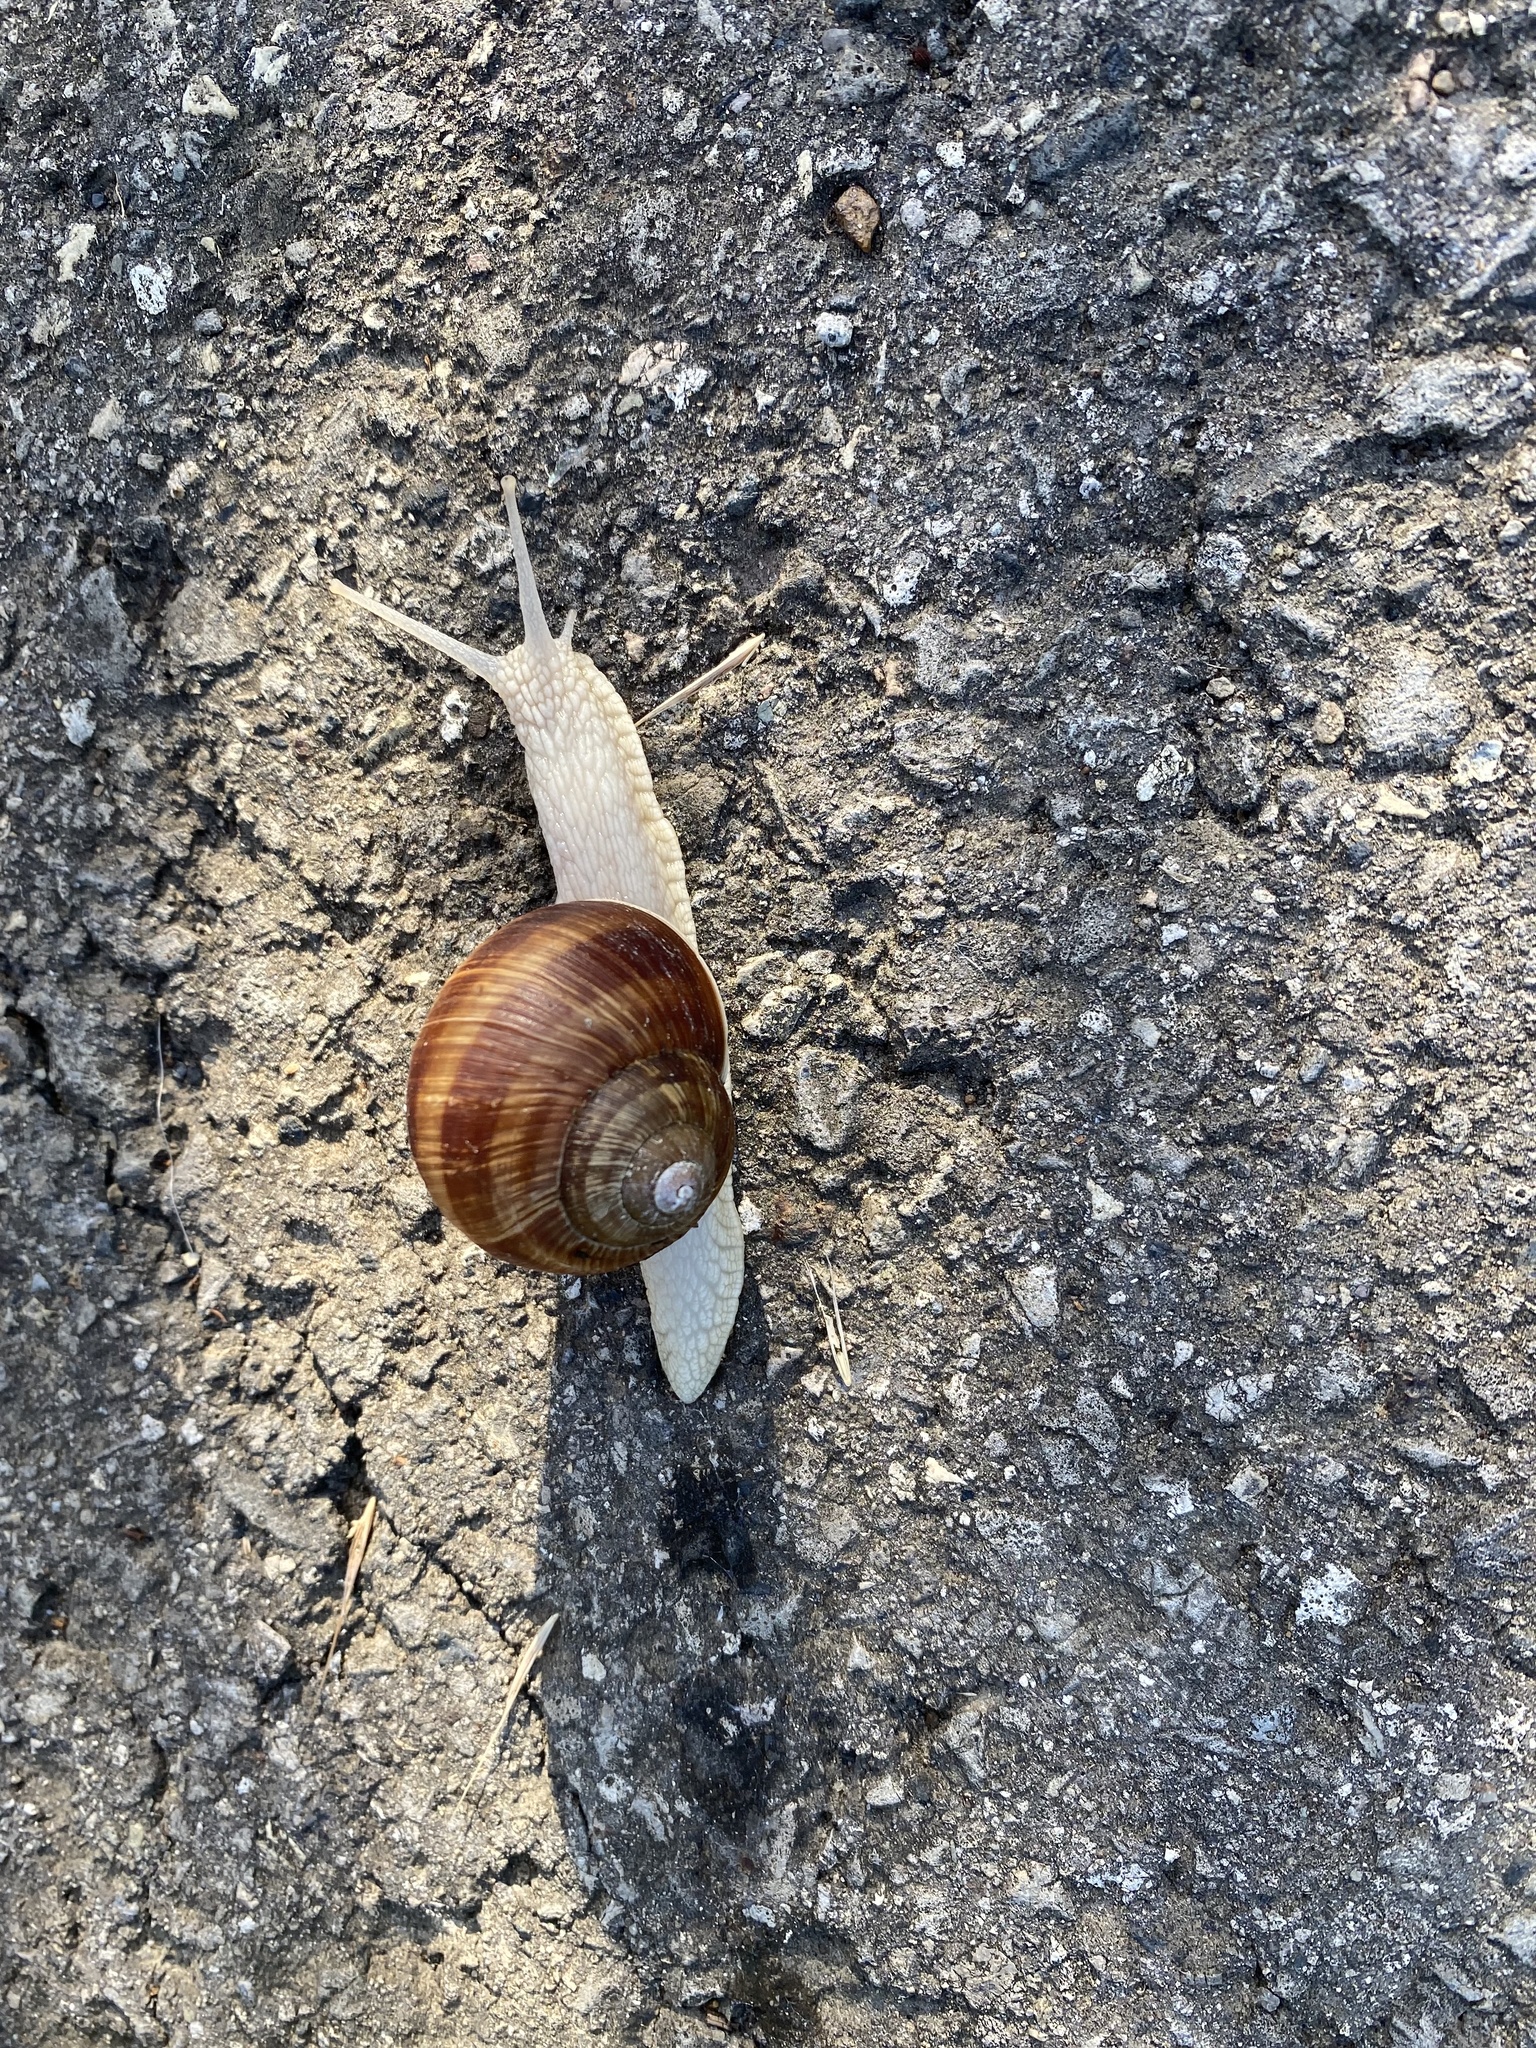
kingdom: Animalia
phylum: Mollusca
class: Gastropoda
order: Stylommatophora
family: Helicidae
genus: Helix
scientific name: Helix pomatia
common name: Roman snail
